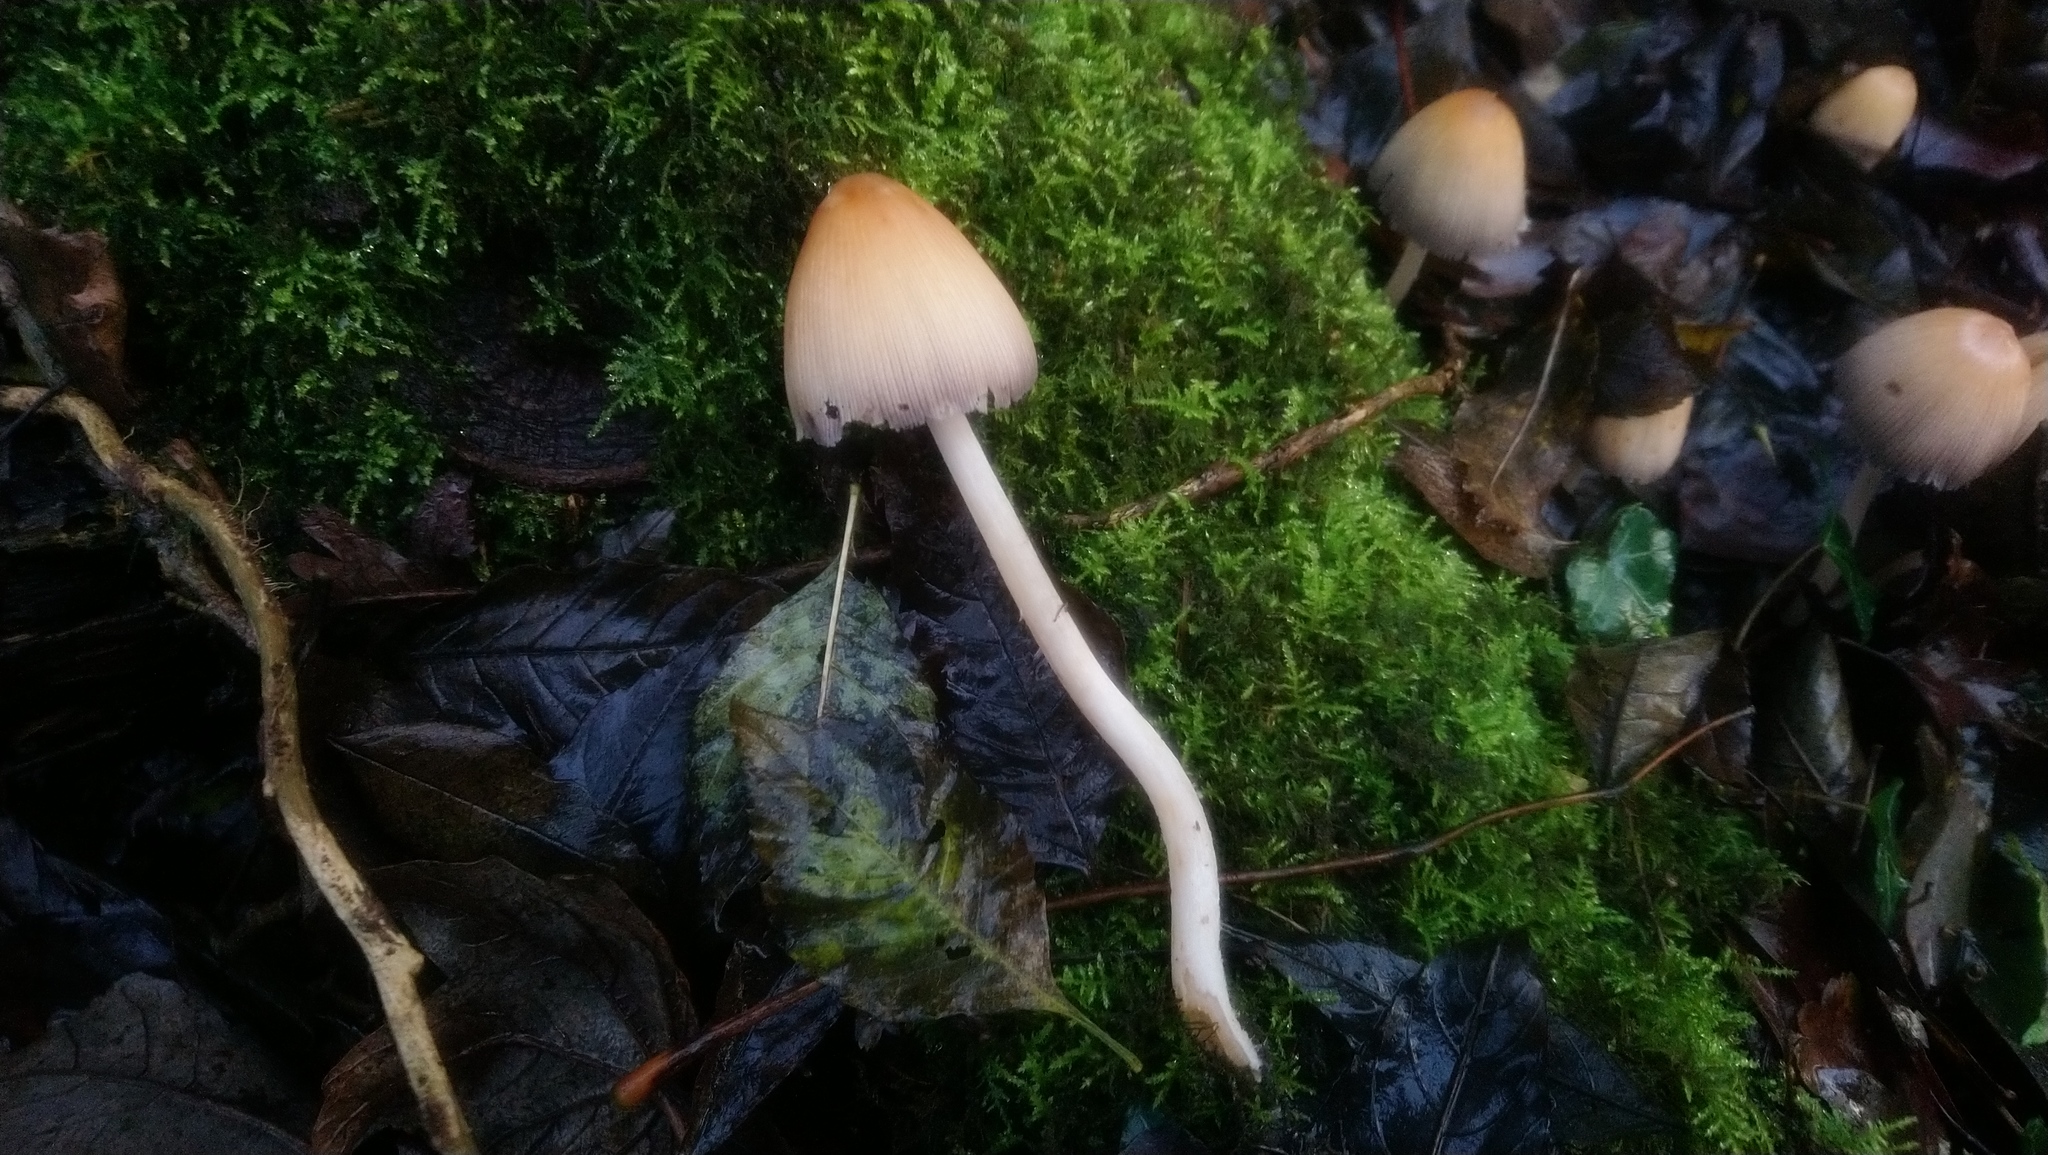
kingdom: Fungi
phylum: Basidiomycota
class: Agaricomycetes
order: Agaricales
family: Psathyrellaceae
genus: Coprinellus
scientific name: Coprinellus micaceus
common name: Glistening ink-cap
